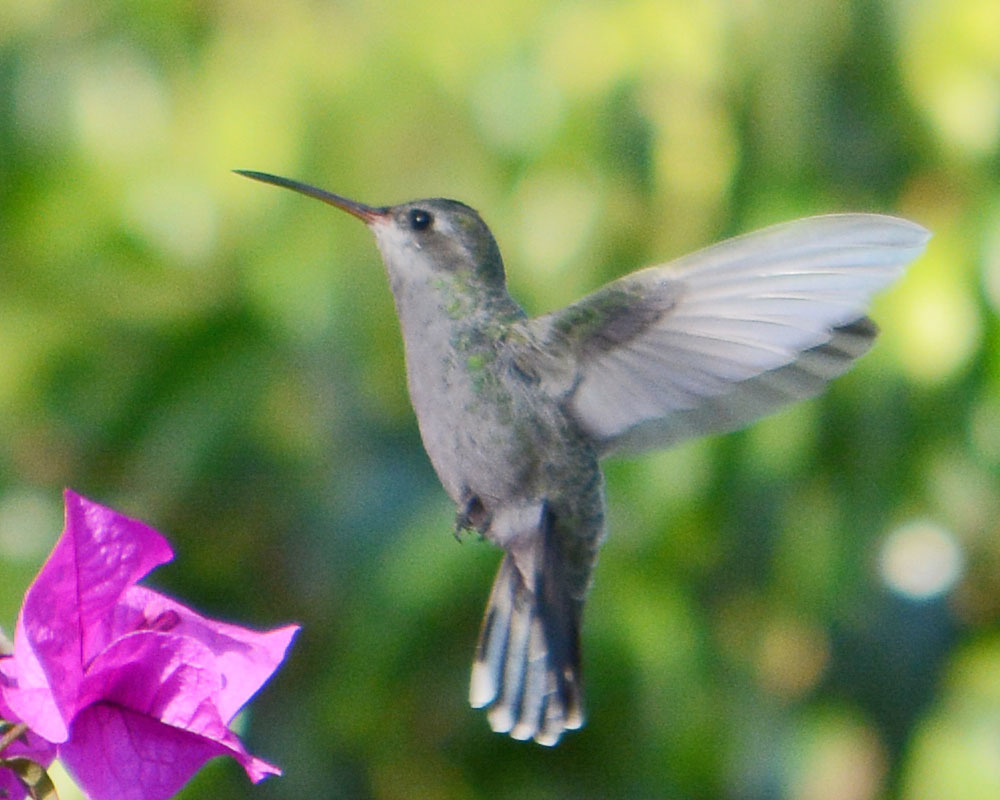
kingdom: Animalia
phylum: Chordata
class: Aves
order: Apodiformes
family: Trochilidae
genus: Cynanthus
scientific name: Cynanthus latirostris
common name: Broad-billed hummingbird
